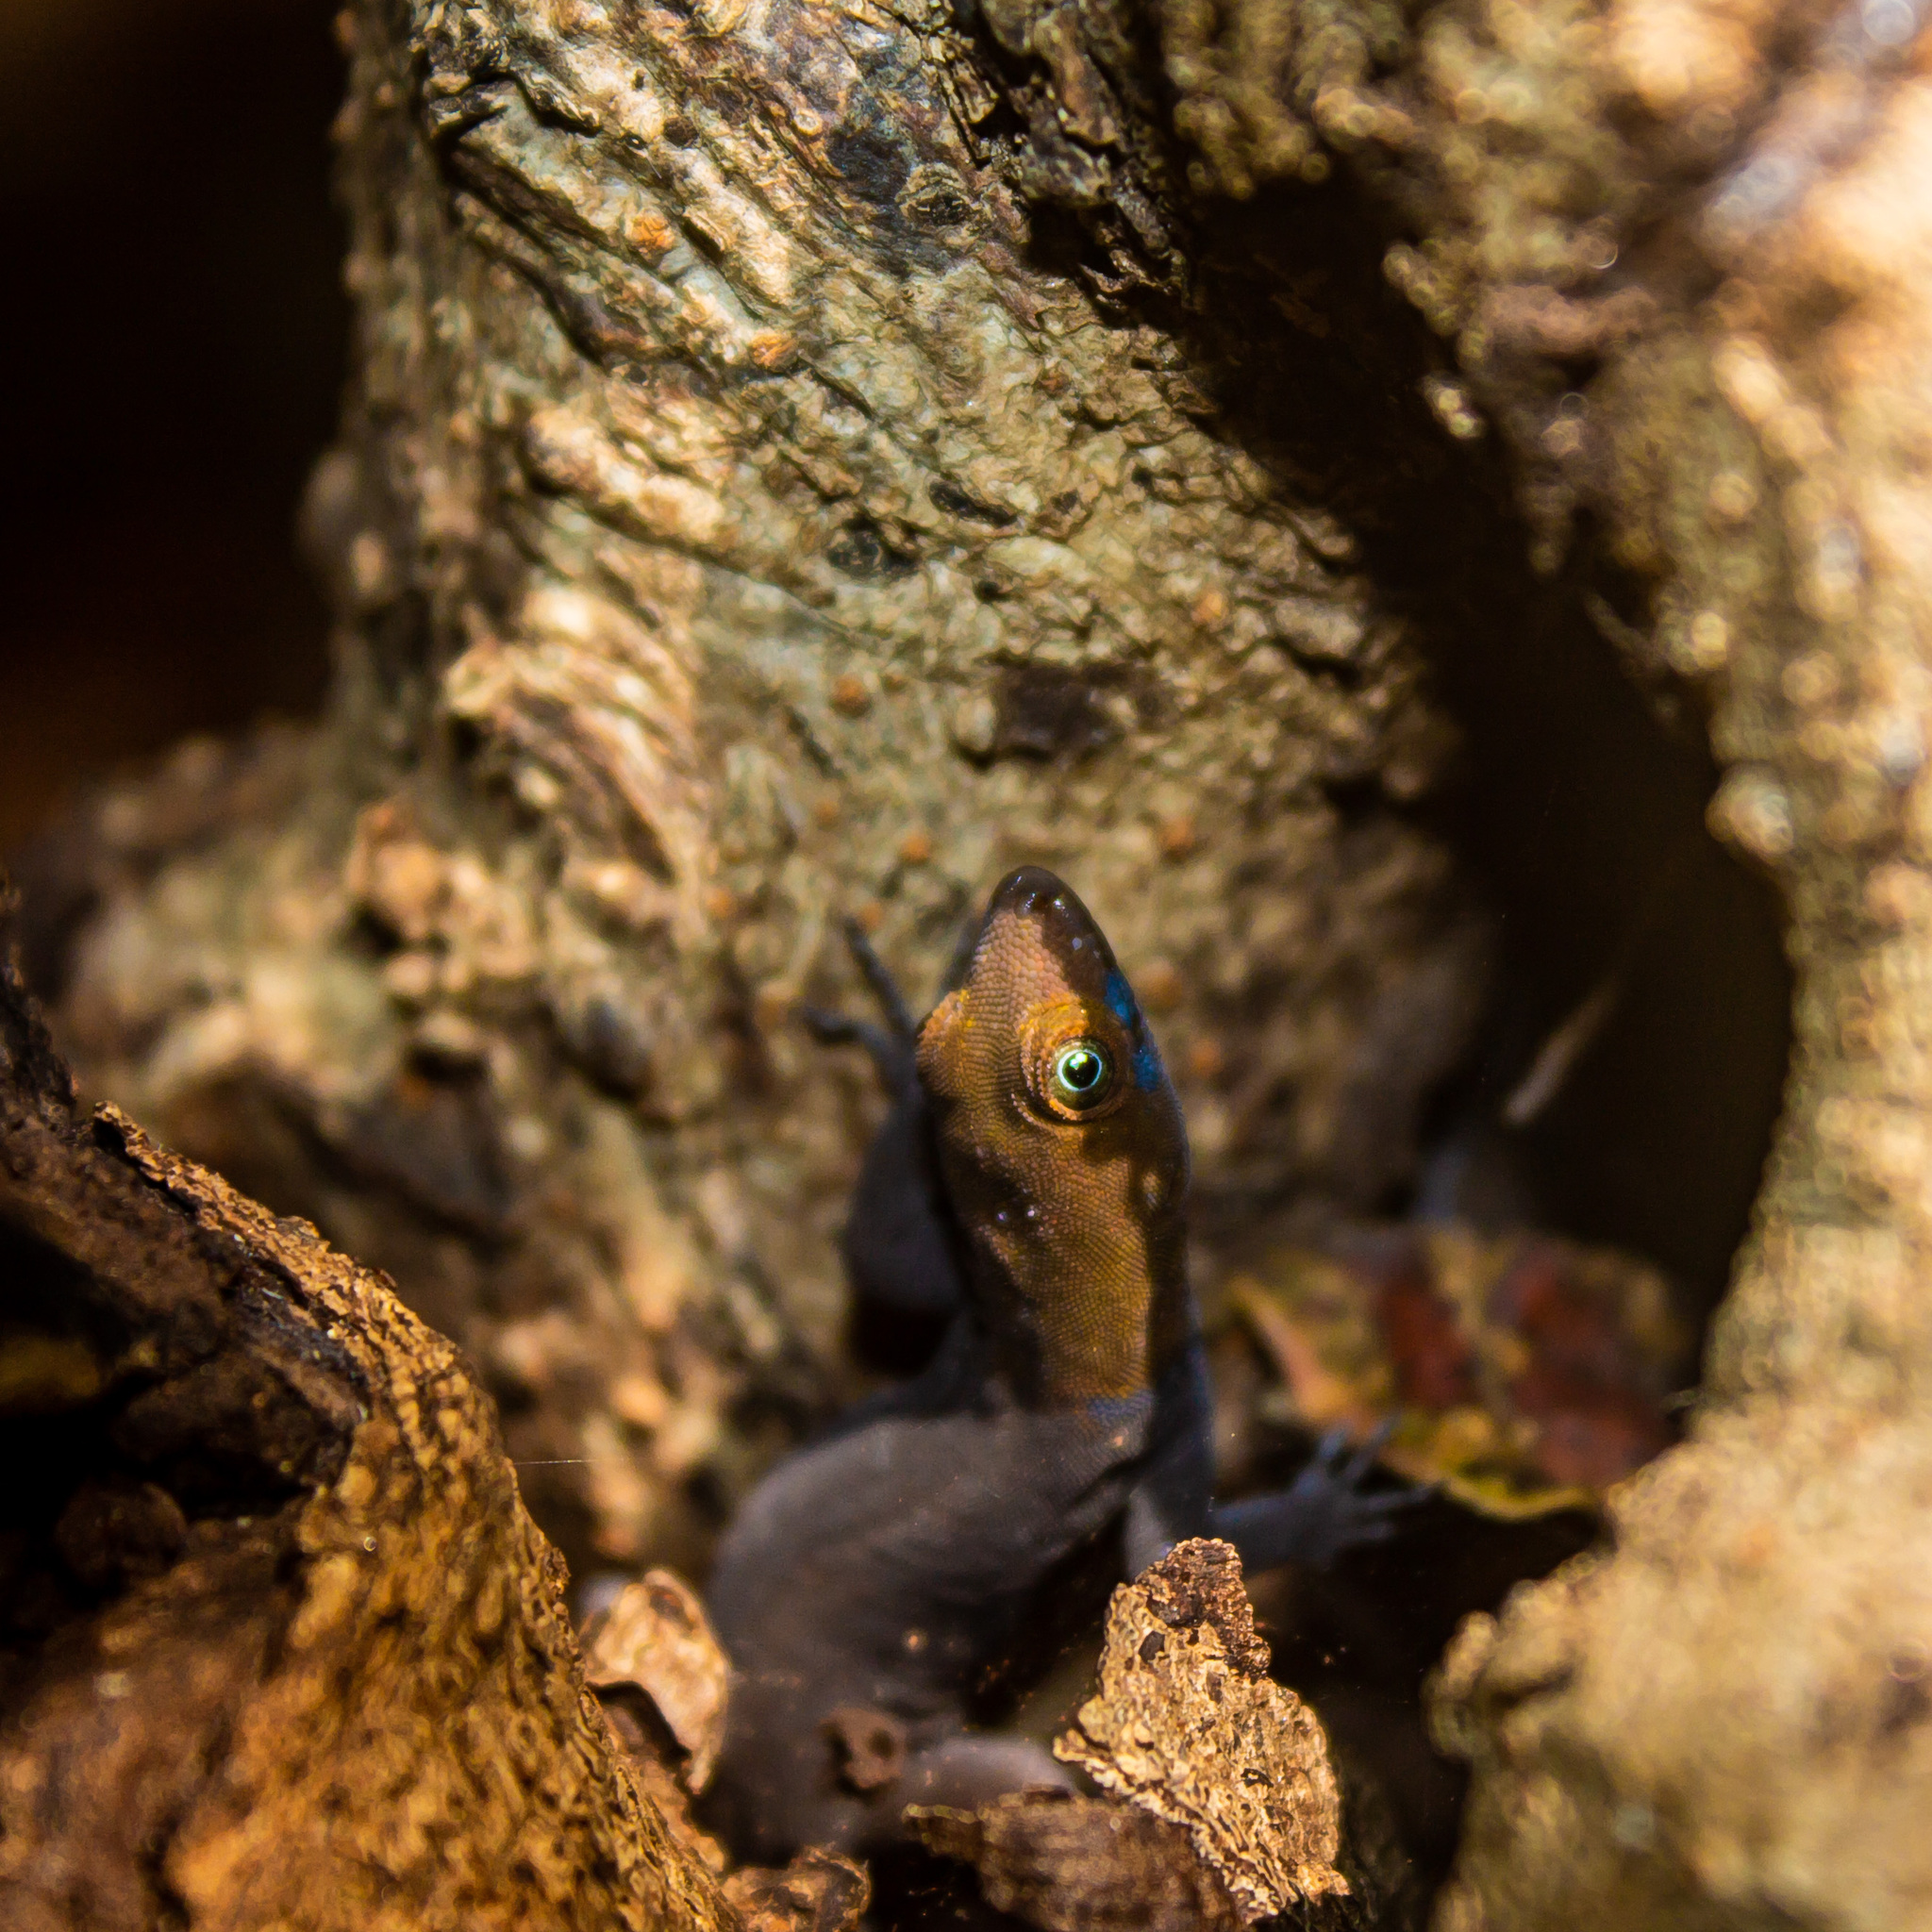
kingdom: Animalia
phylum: Chordata
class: Squamata
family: Sphaerodactylidae
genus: Gonatodes
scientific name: Gonatodes albogularis
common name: Yellow-headed gecko
